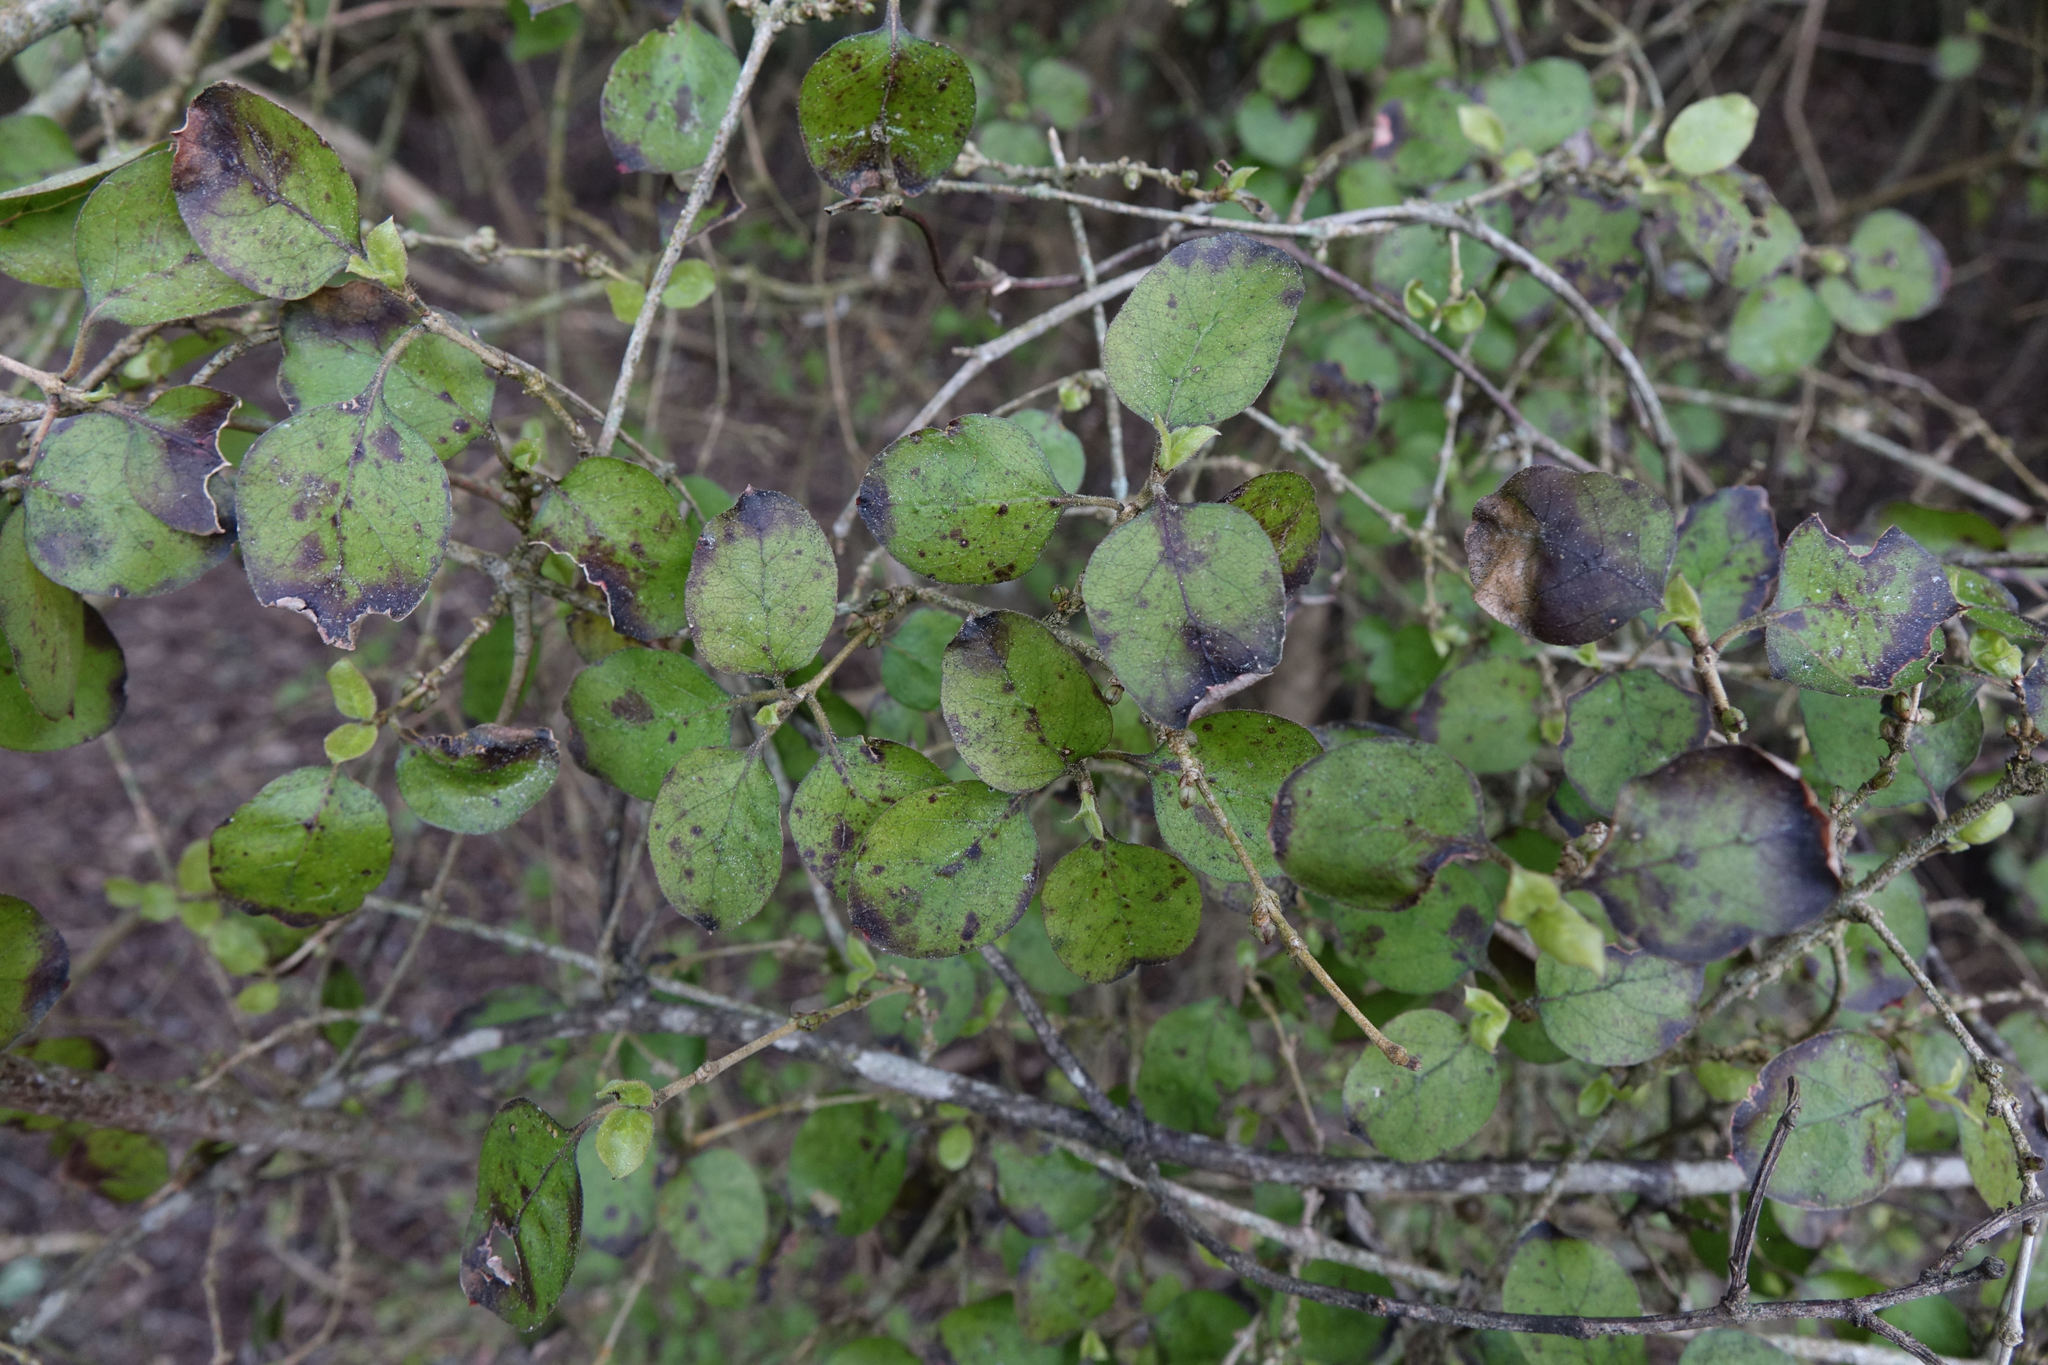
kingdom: Plantae
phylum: Tracheophyta
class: Magnoliopsida
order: Gentianales
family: Rubiaceae
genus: Coprosma
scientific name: Coprosma rotundifolia
